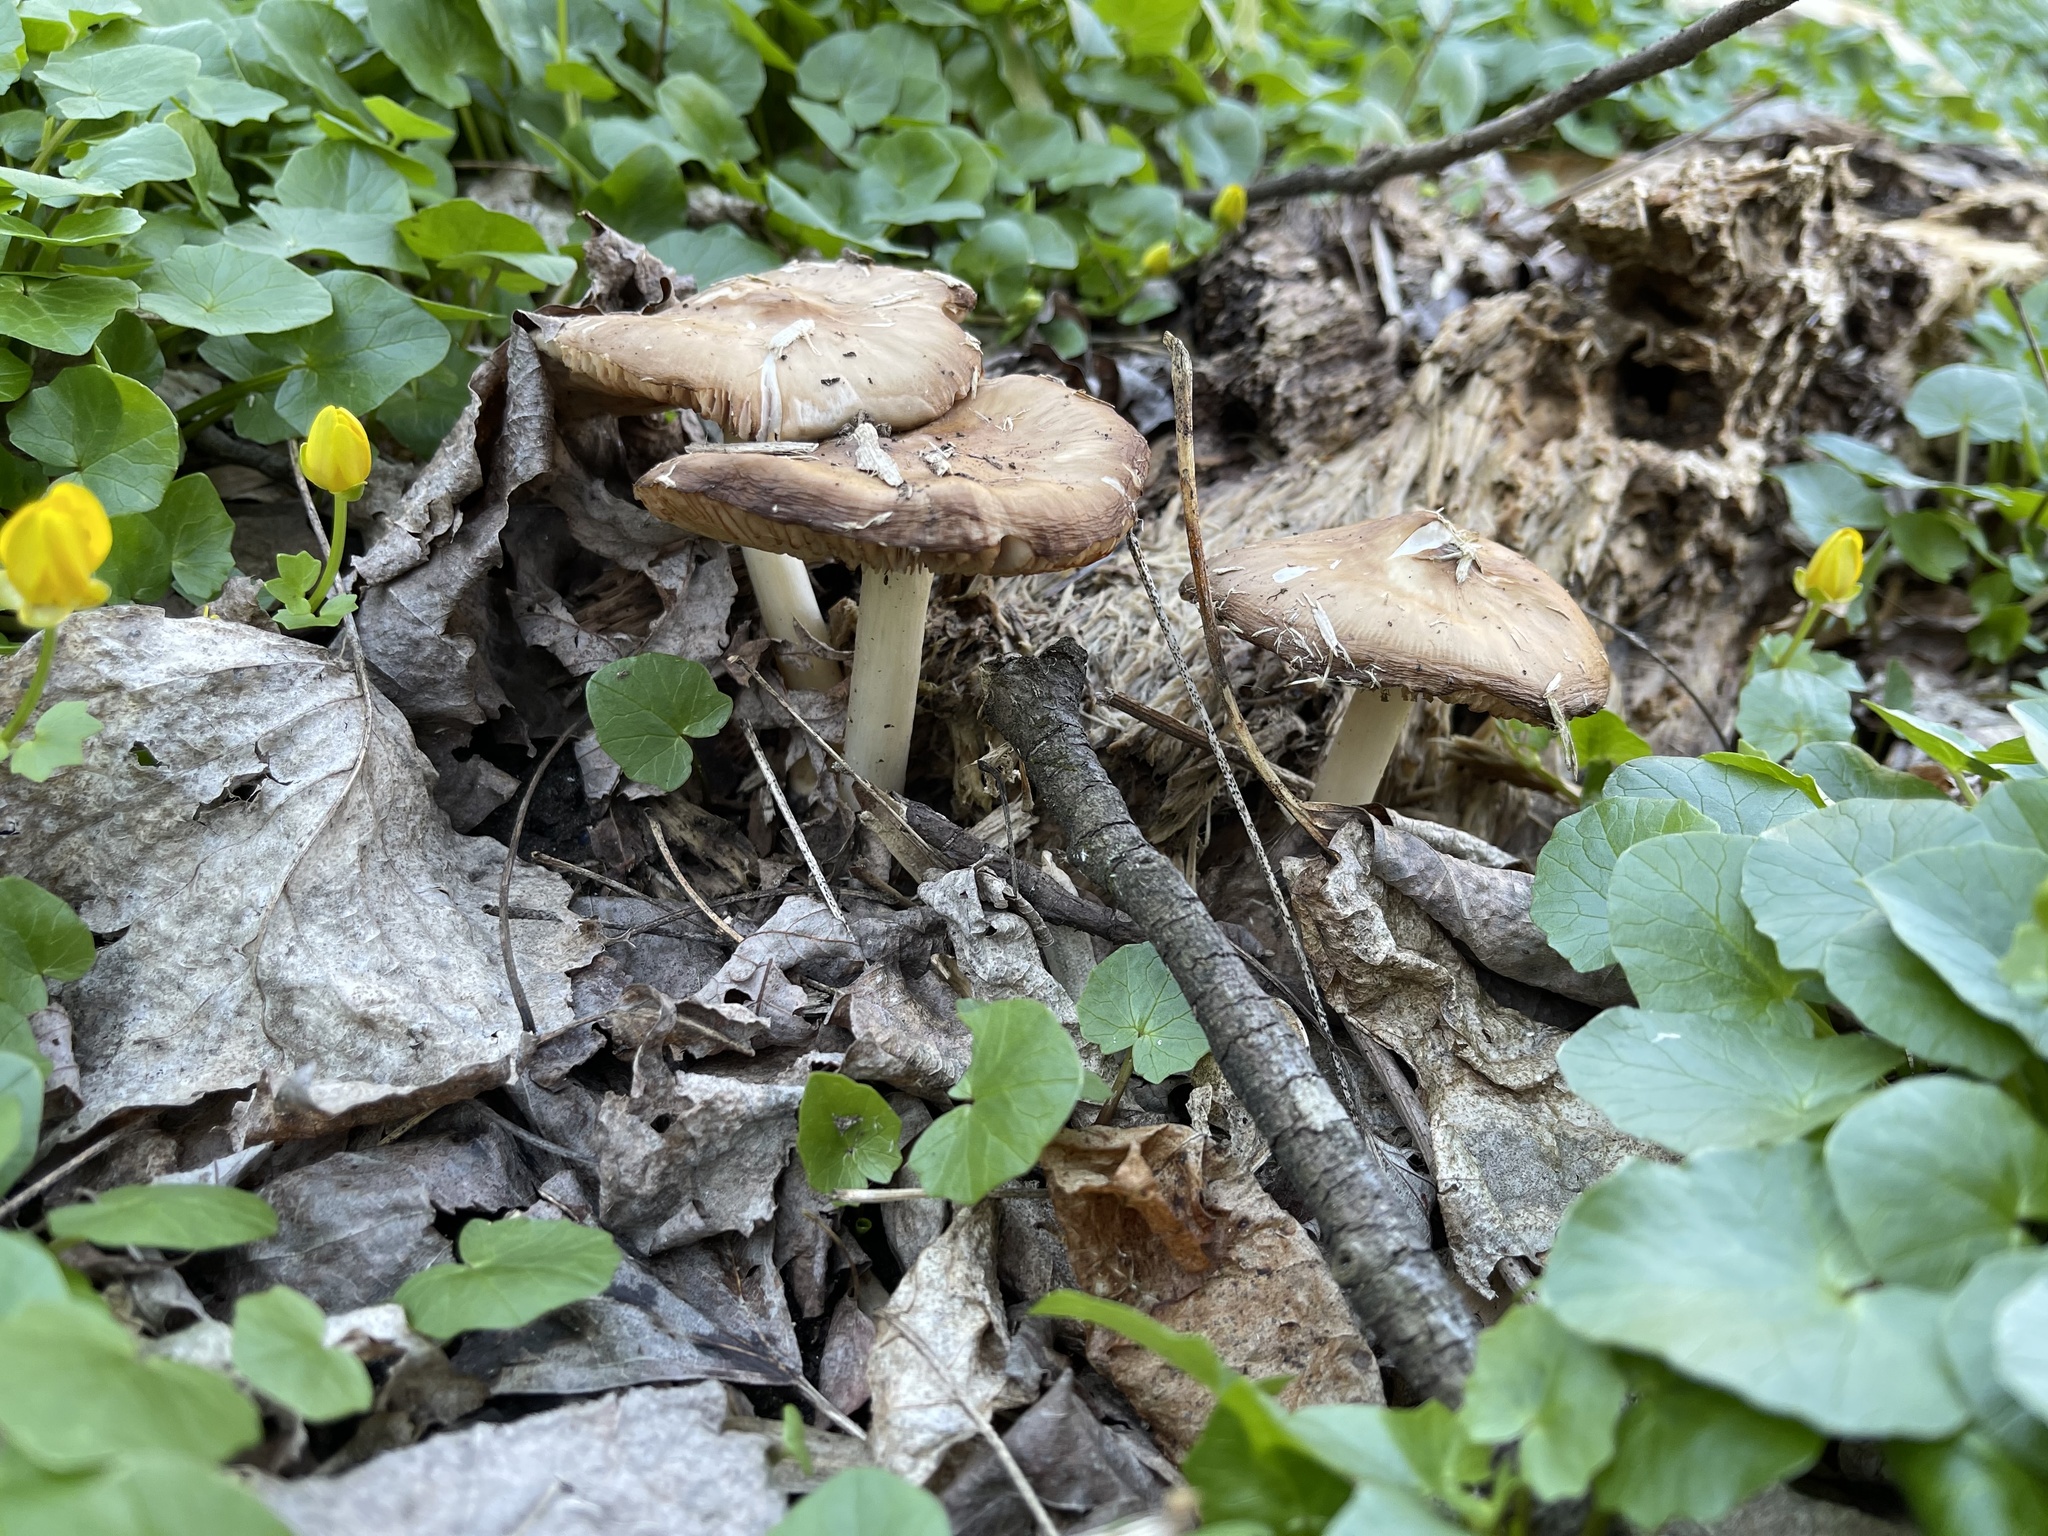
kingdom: Fungi
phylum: Basidiomycota
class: Agaricomycetes
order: Agaricales
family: Pluteaceae
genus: Pluteus
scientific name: Pluteus cervinus
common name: Deer shield
